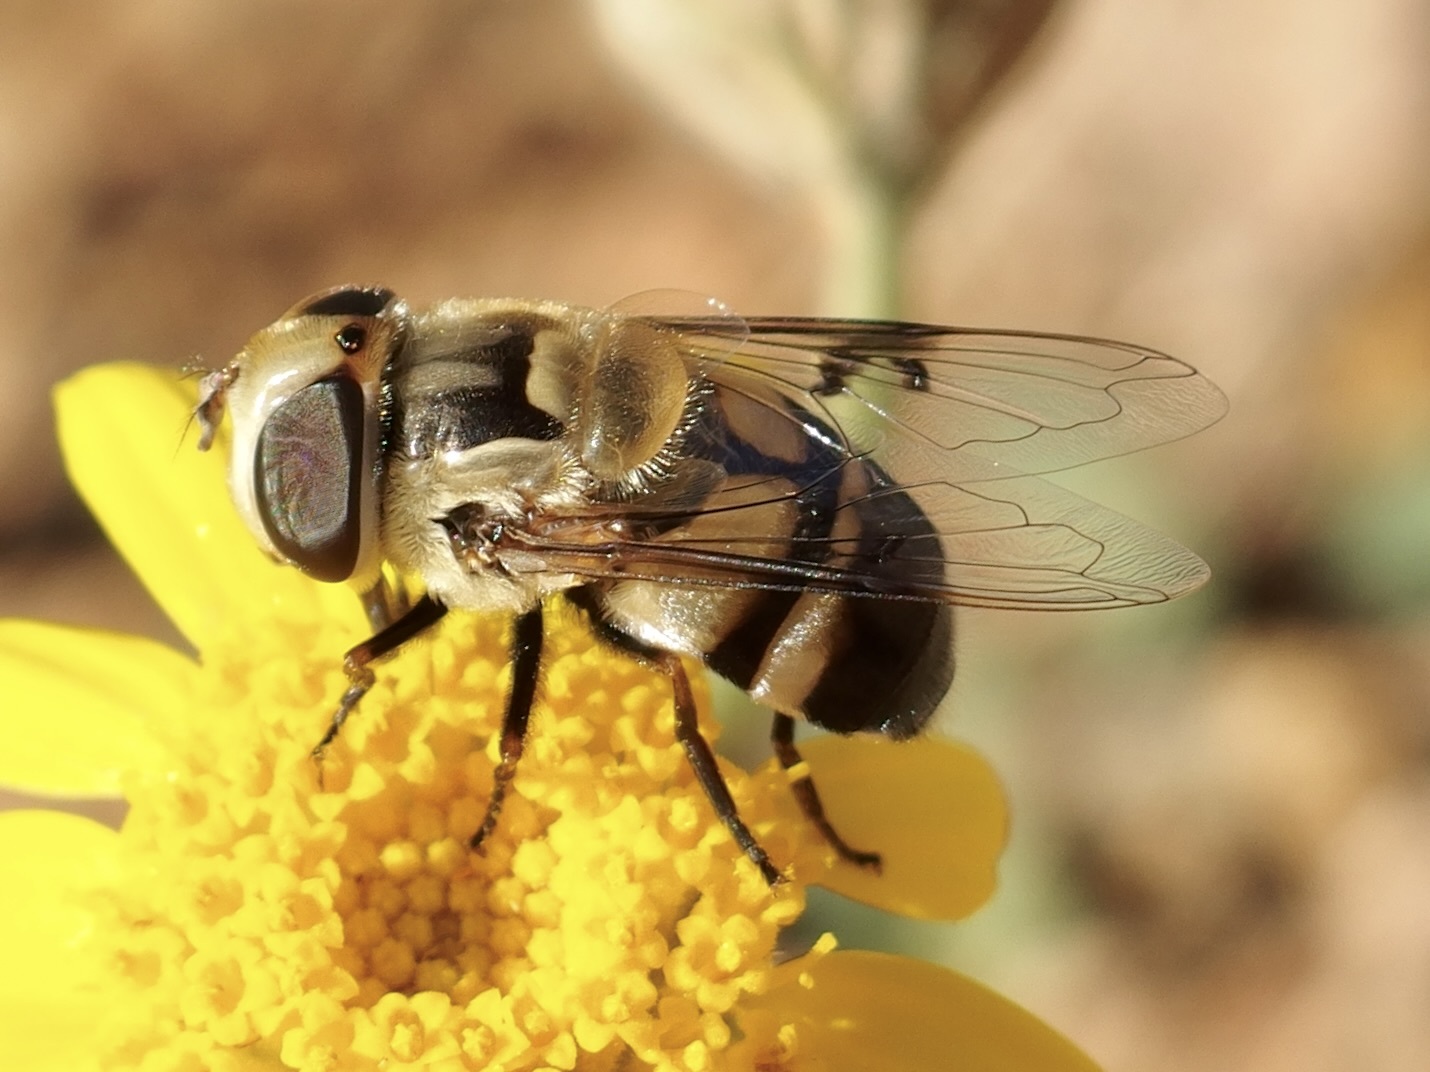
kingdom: Animalia
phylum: Arthropoda
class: Insecta
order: Diptera
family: Syrphidae
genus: Copestylum
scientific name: Copestylum apiciferum
